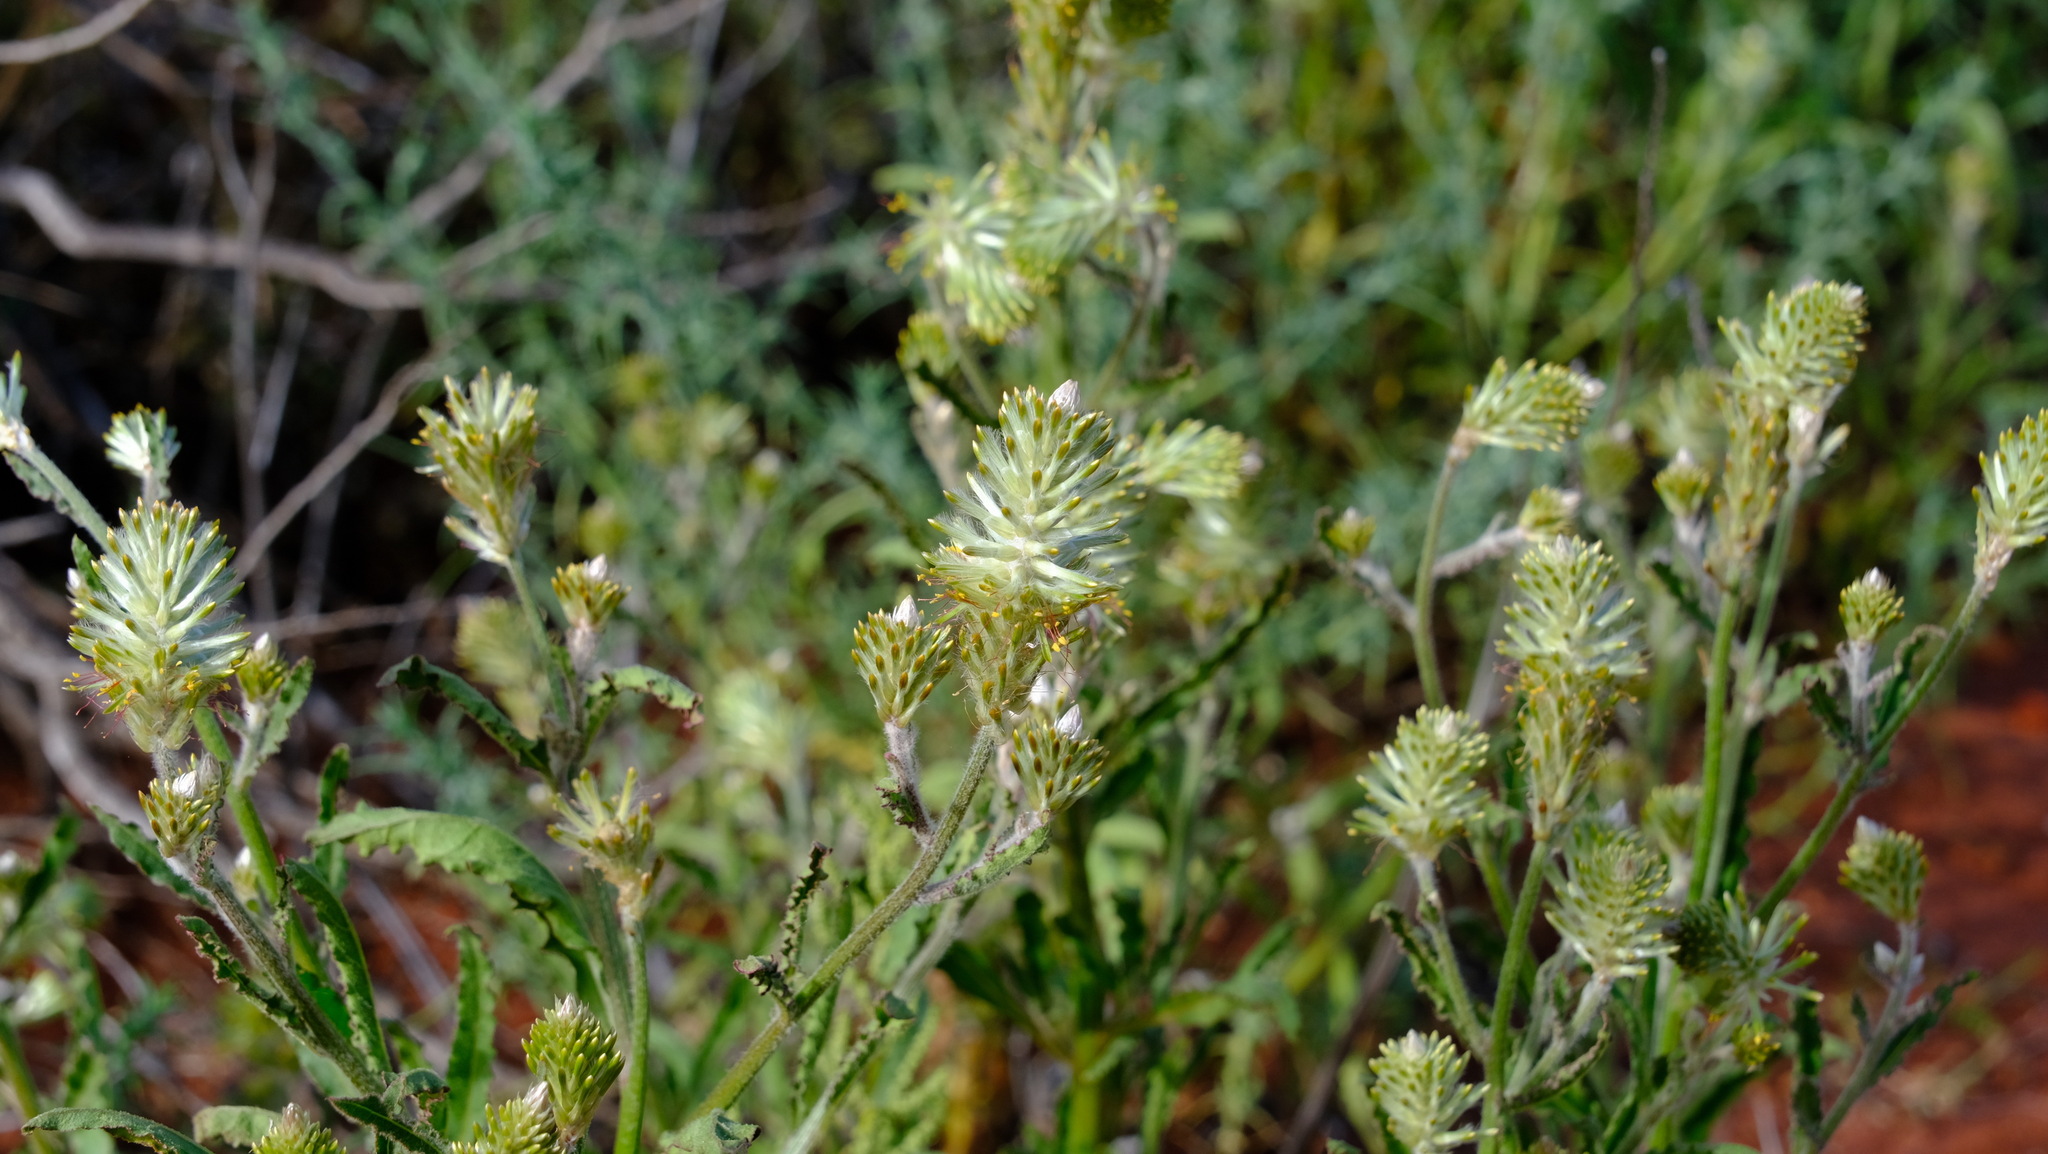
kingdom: Plantae
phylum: Tracheophyta
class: Magnoliopsida
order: Caryophyllales
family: Amaranthaceae
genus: Ptilotus
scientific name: Ptilotus polystachyus
